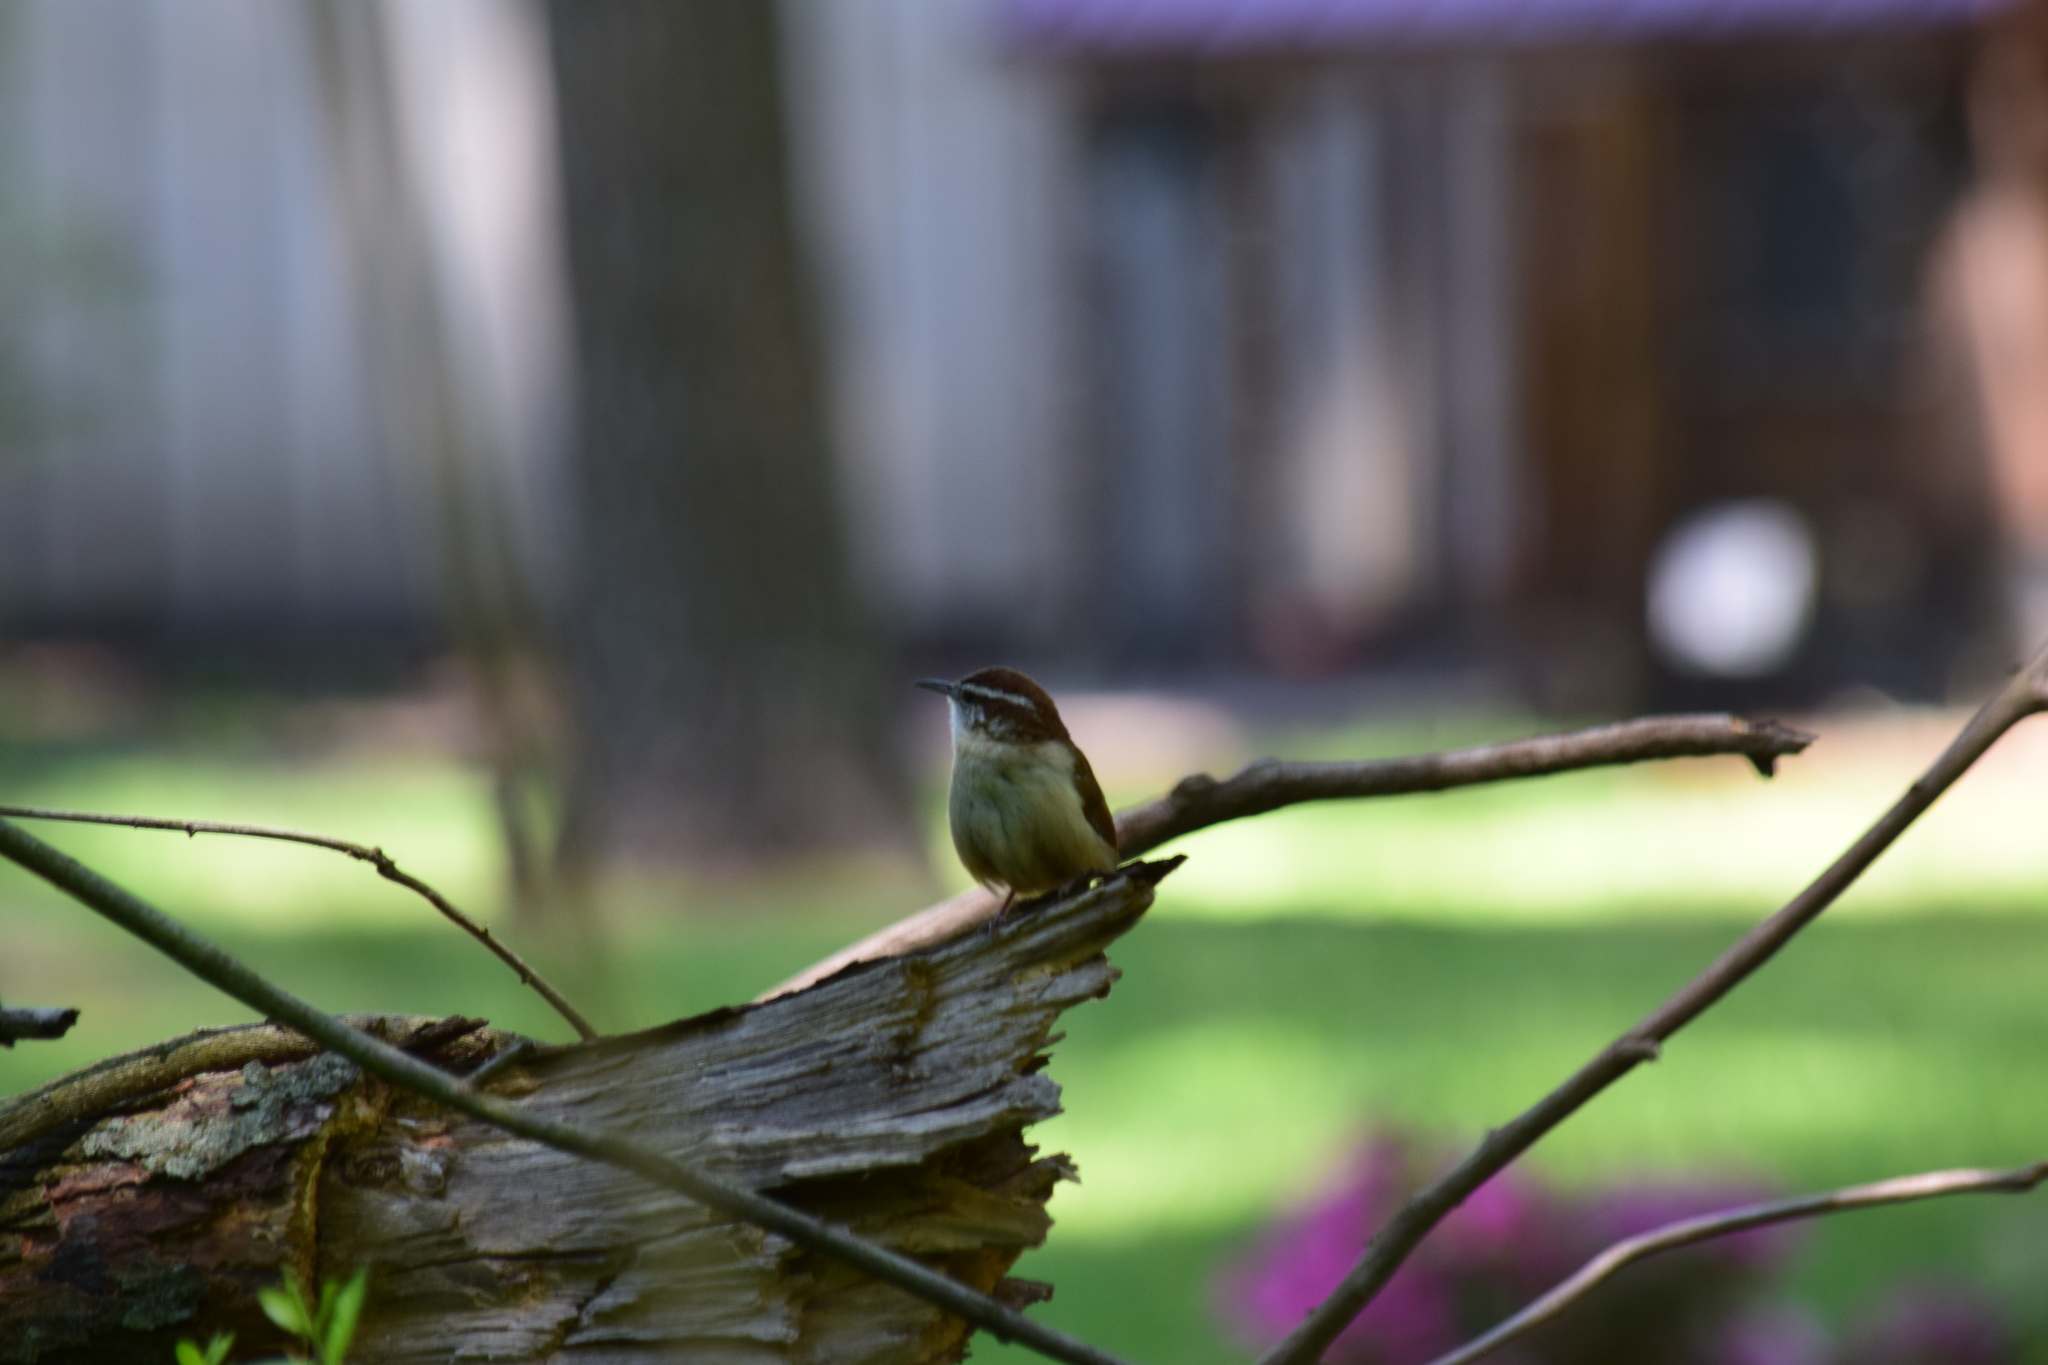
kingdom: Animalia
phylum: Chordata
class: Aves
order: Passeriformes
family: Troglodytidae
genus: Thryothorus
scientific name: Thryothorus ludovicianus
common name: Carolina wren
